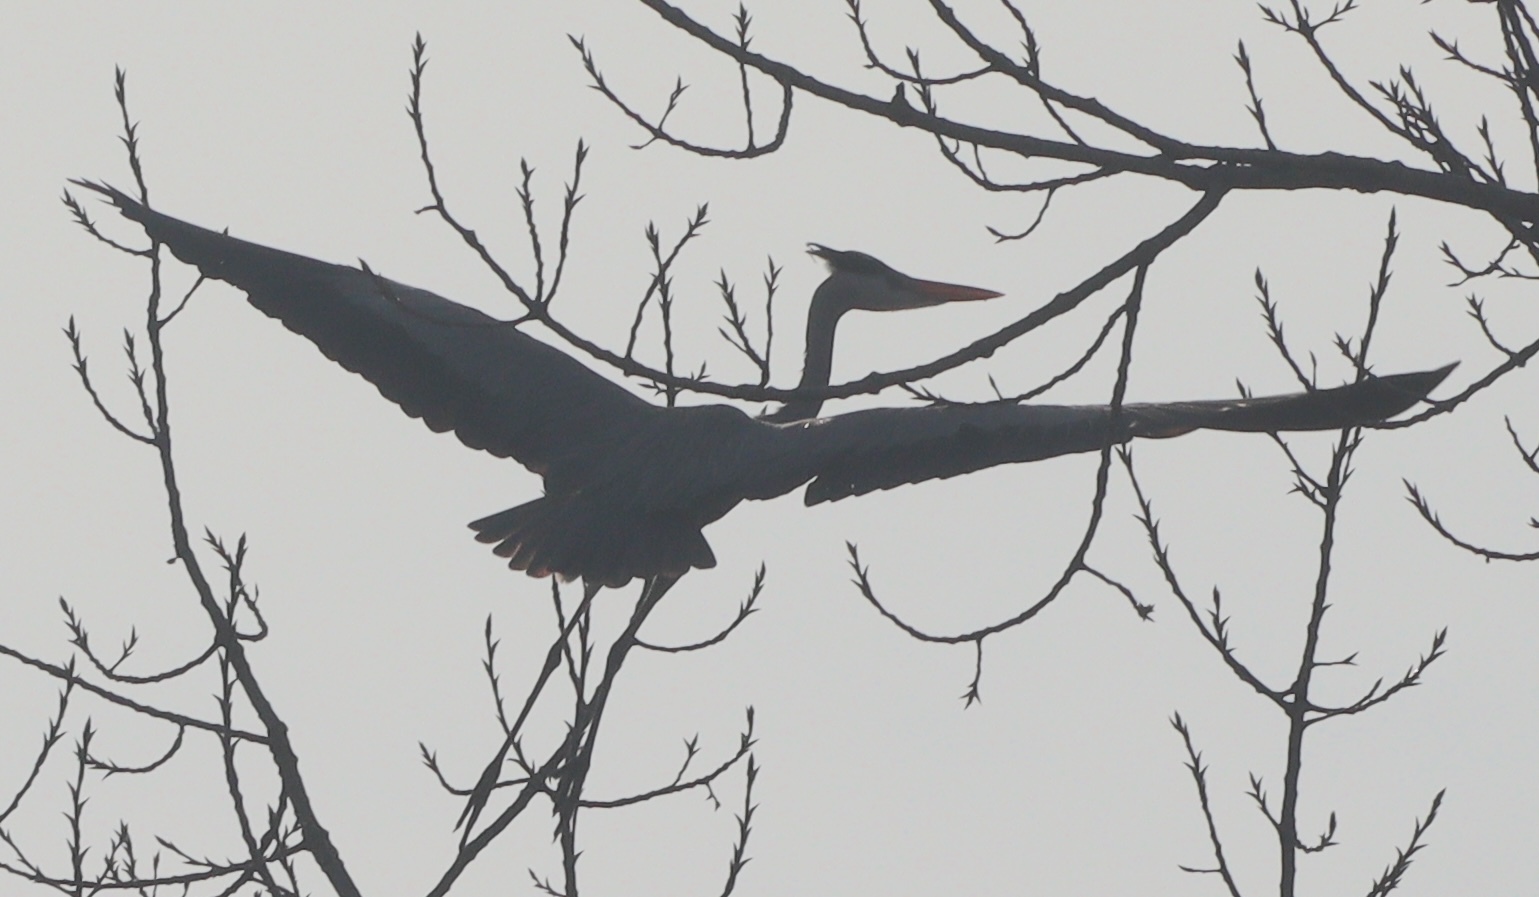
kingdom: Animalia
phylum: Chordata
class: Aves
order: Pelecaniformes
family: Ardeidae
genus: Ardea
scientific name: Ardea cinerea
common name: Grey heron
